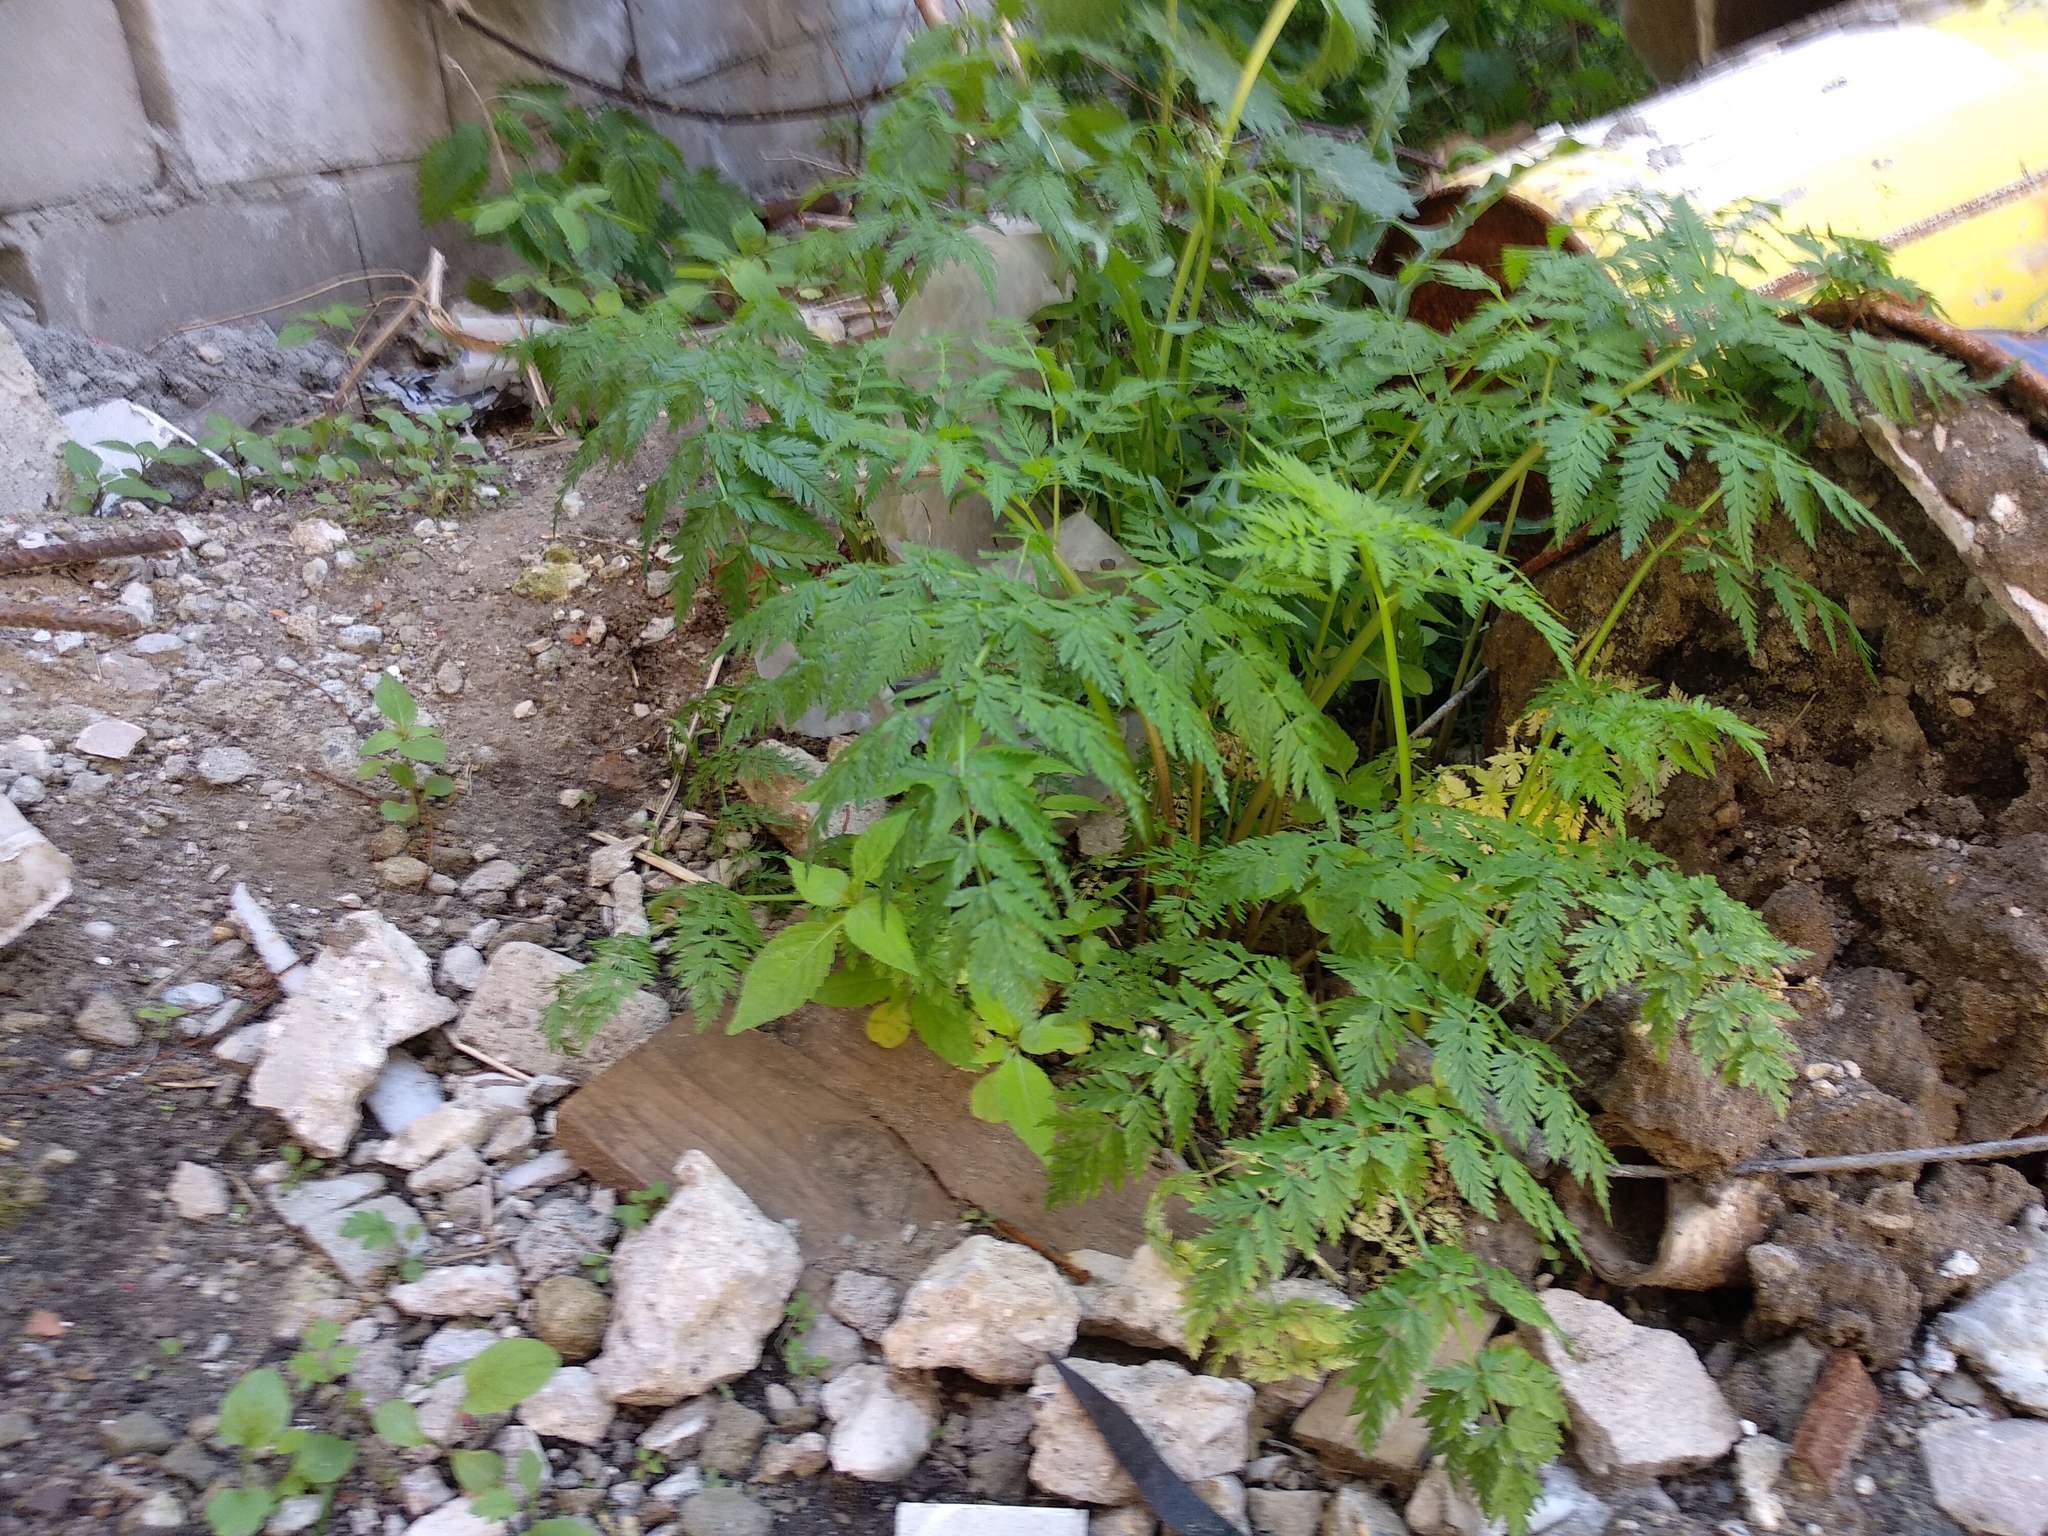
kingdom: Plantae
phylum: Tracheophyta
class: Magnoliopsida
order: Apiales
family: Apiaceae
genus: Anthriscus
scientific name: Anthriscus sylvestris
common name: Cow parsley
